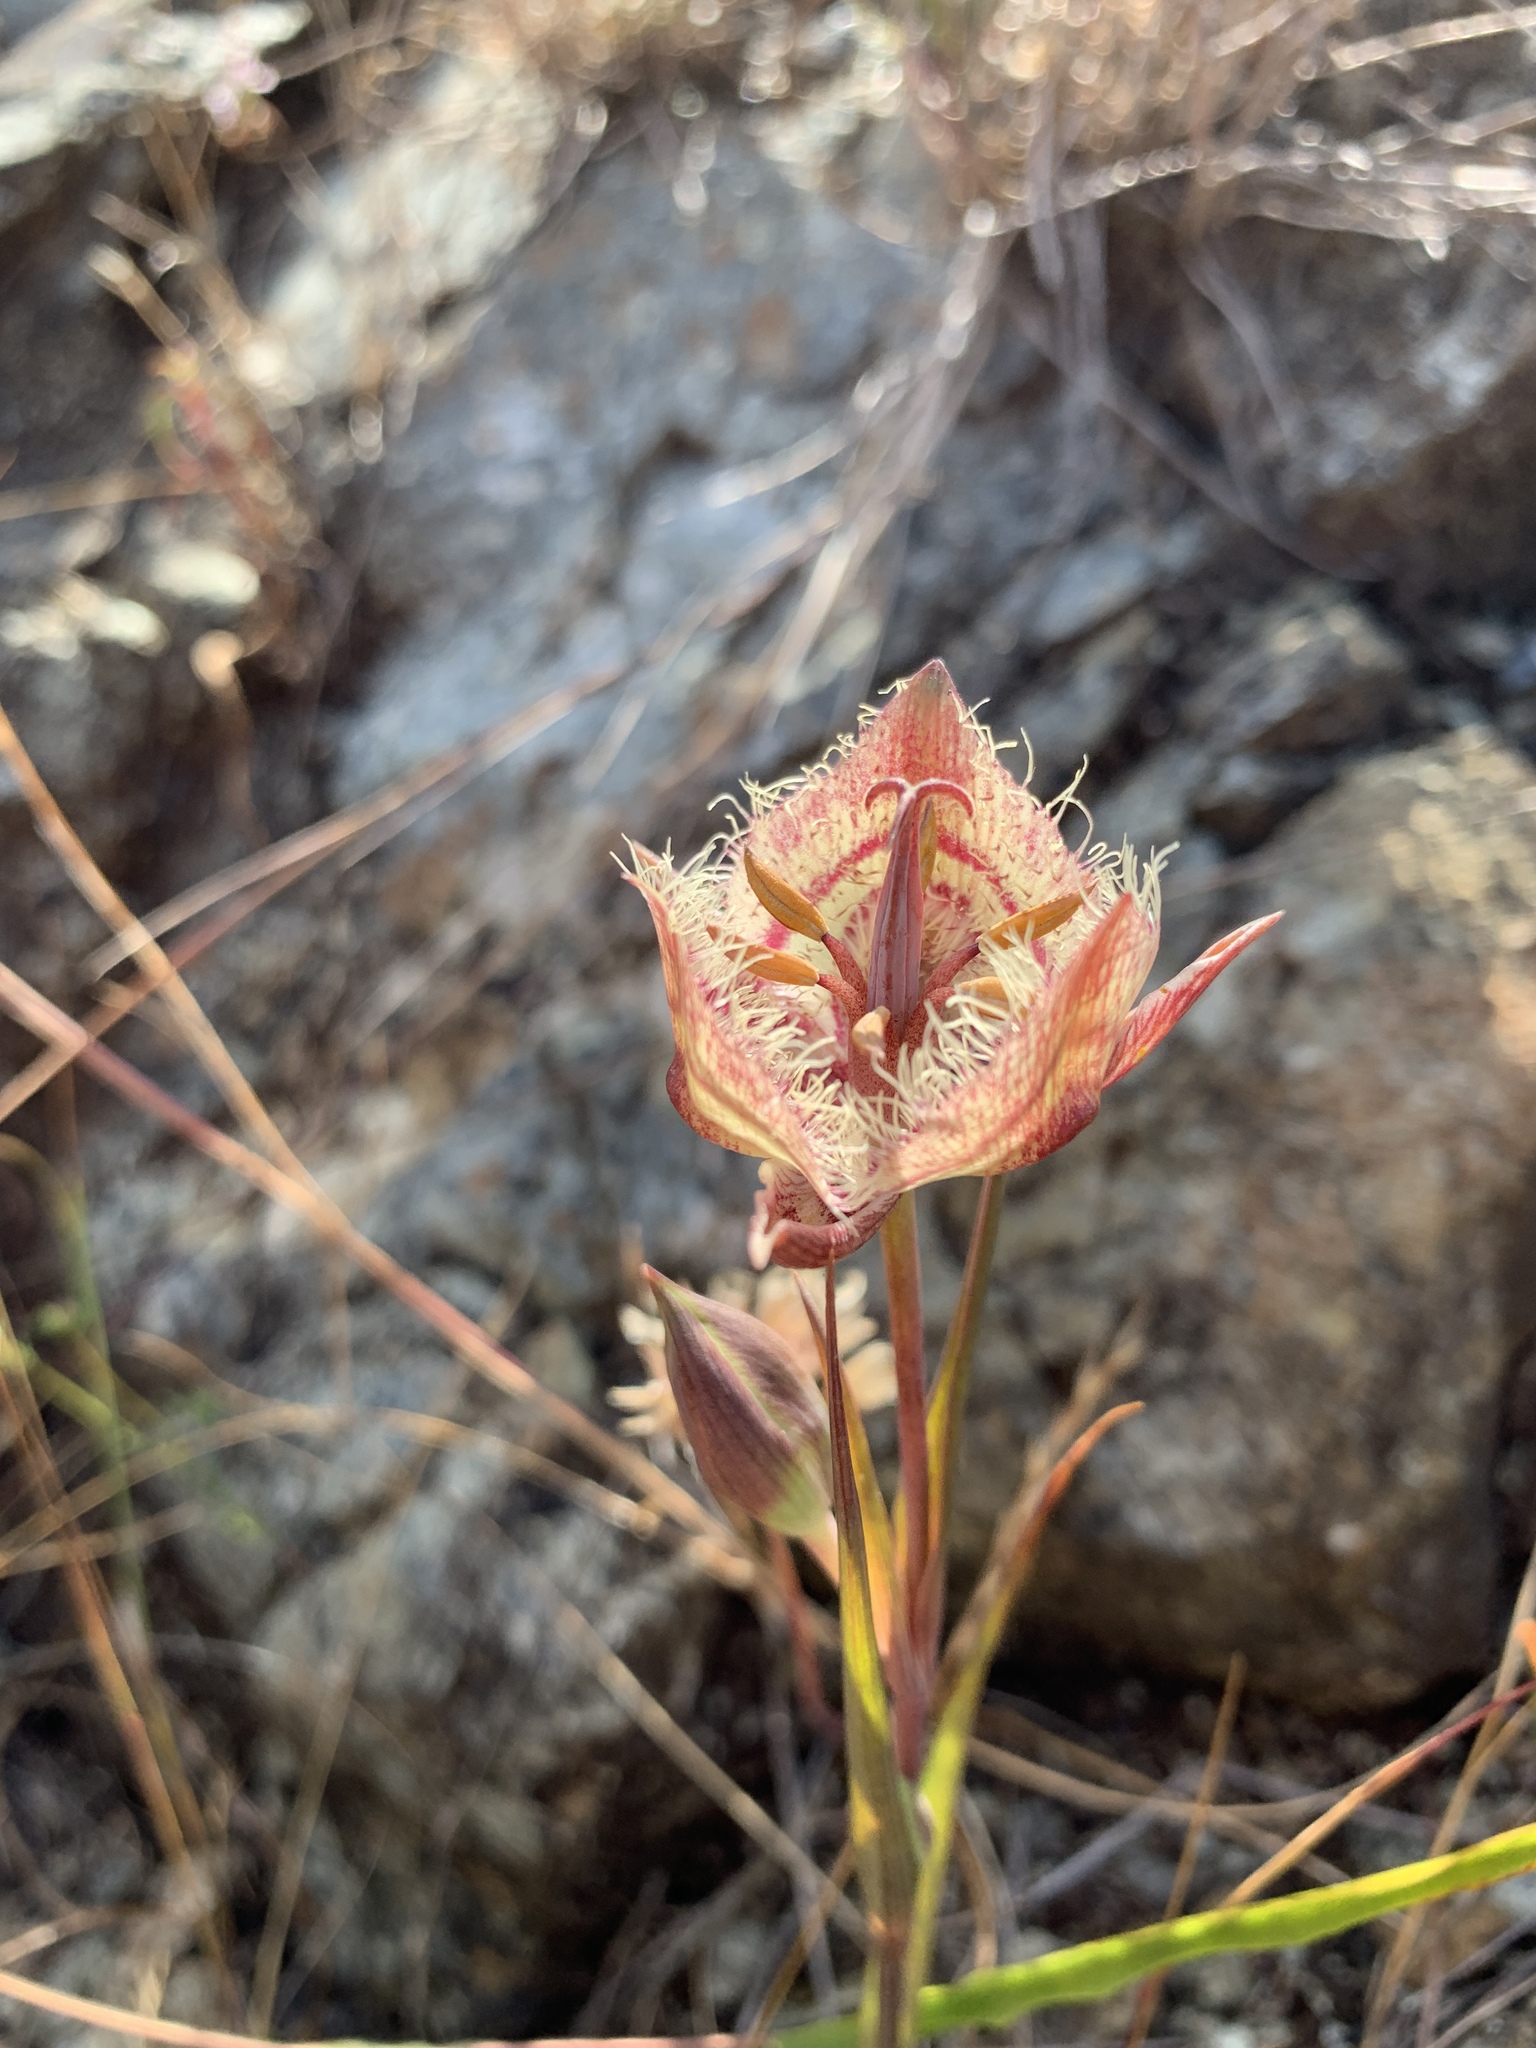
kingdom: Plantae
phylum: Tracheophyta
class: Liliopsida
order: Liliales
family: Liliaceae
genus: Calochortus
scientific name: Calochortus tiburonensis
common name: Tiburon mariposa-lily
